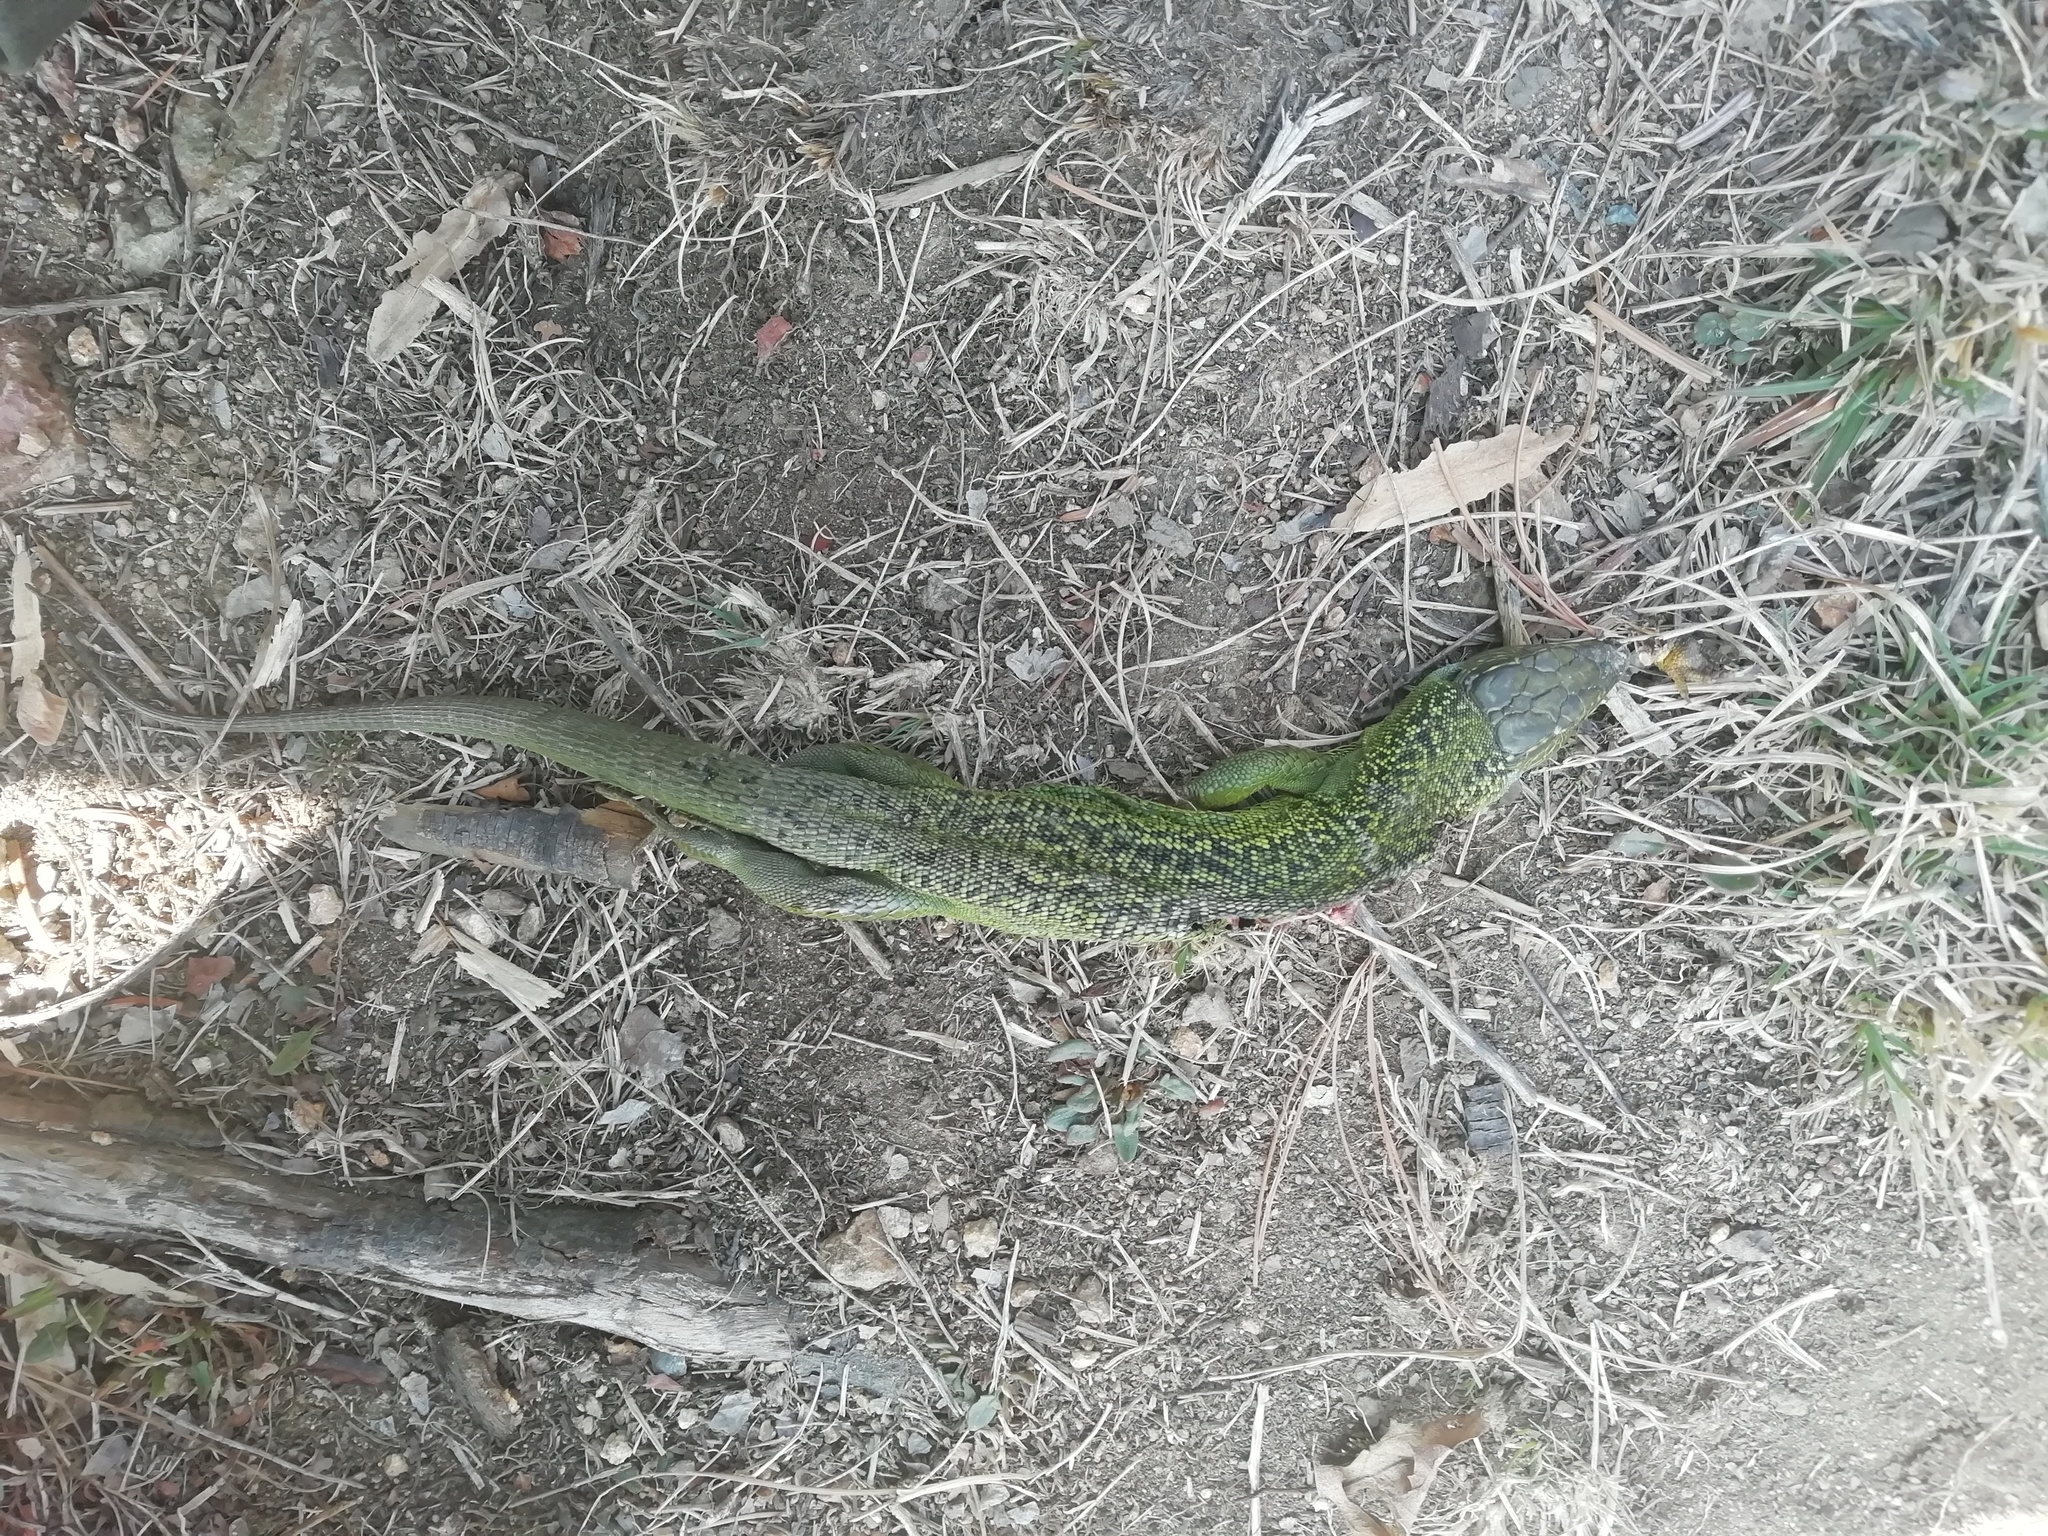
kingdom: Animalia
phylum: Chordata
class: Squamata
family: Lacertidae
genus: Lacerta
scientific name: Lacerta bilineata
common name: Western green lizard
